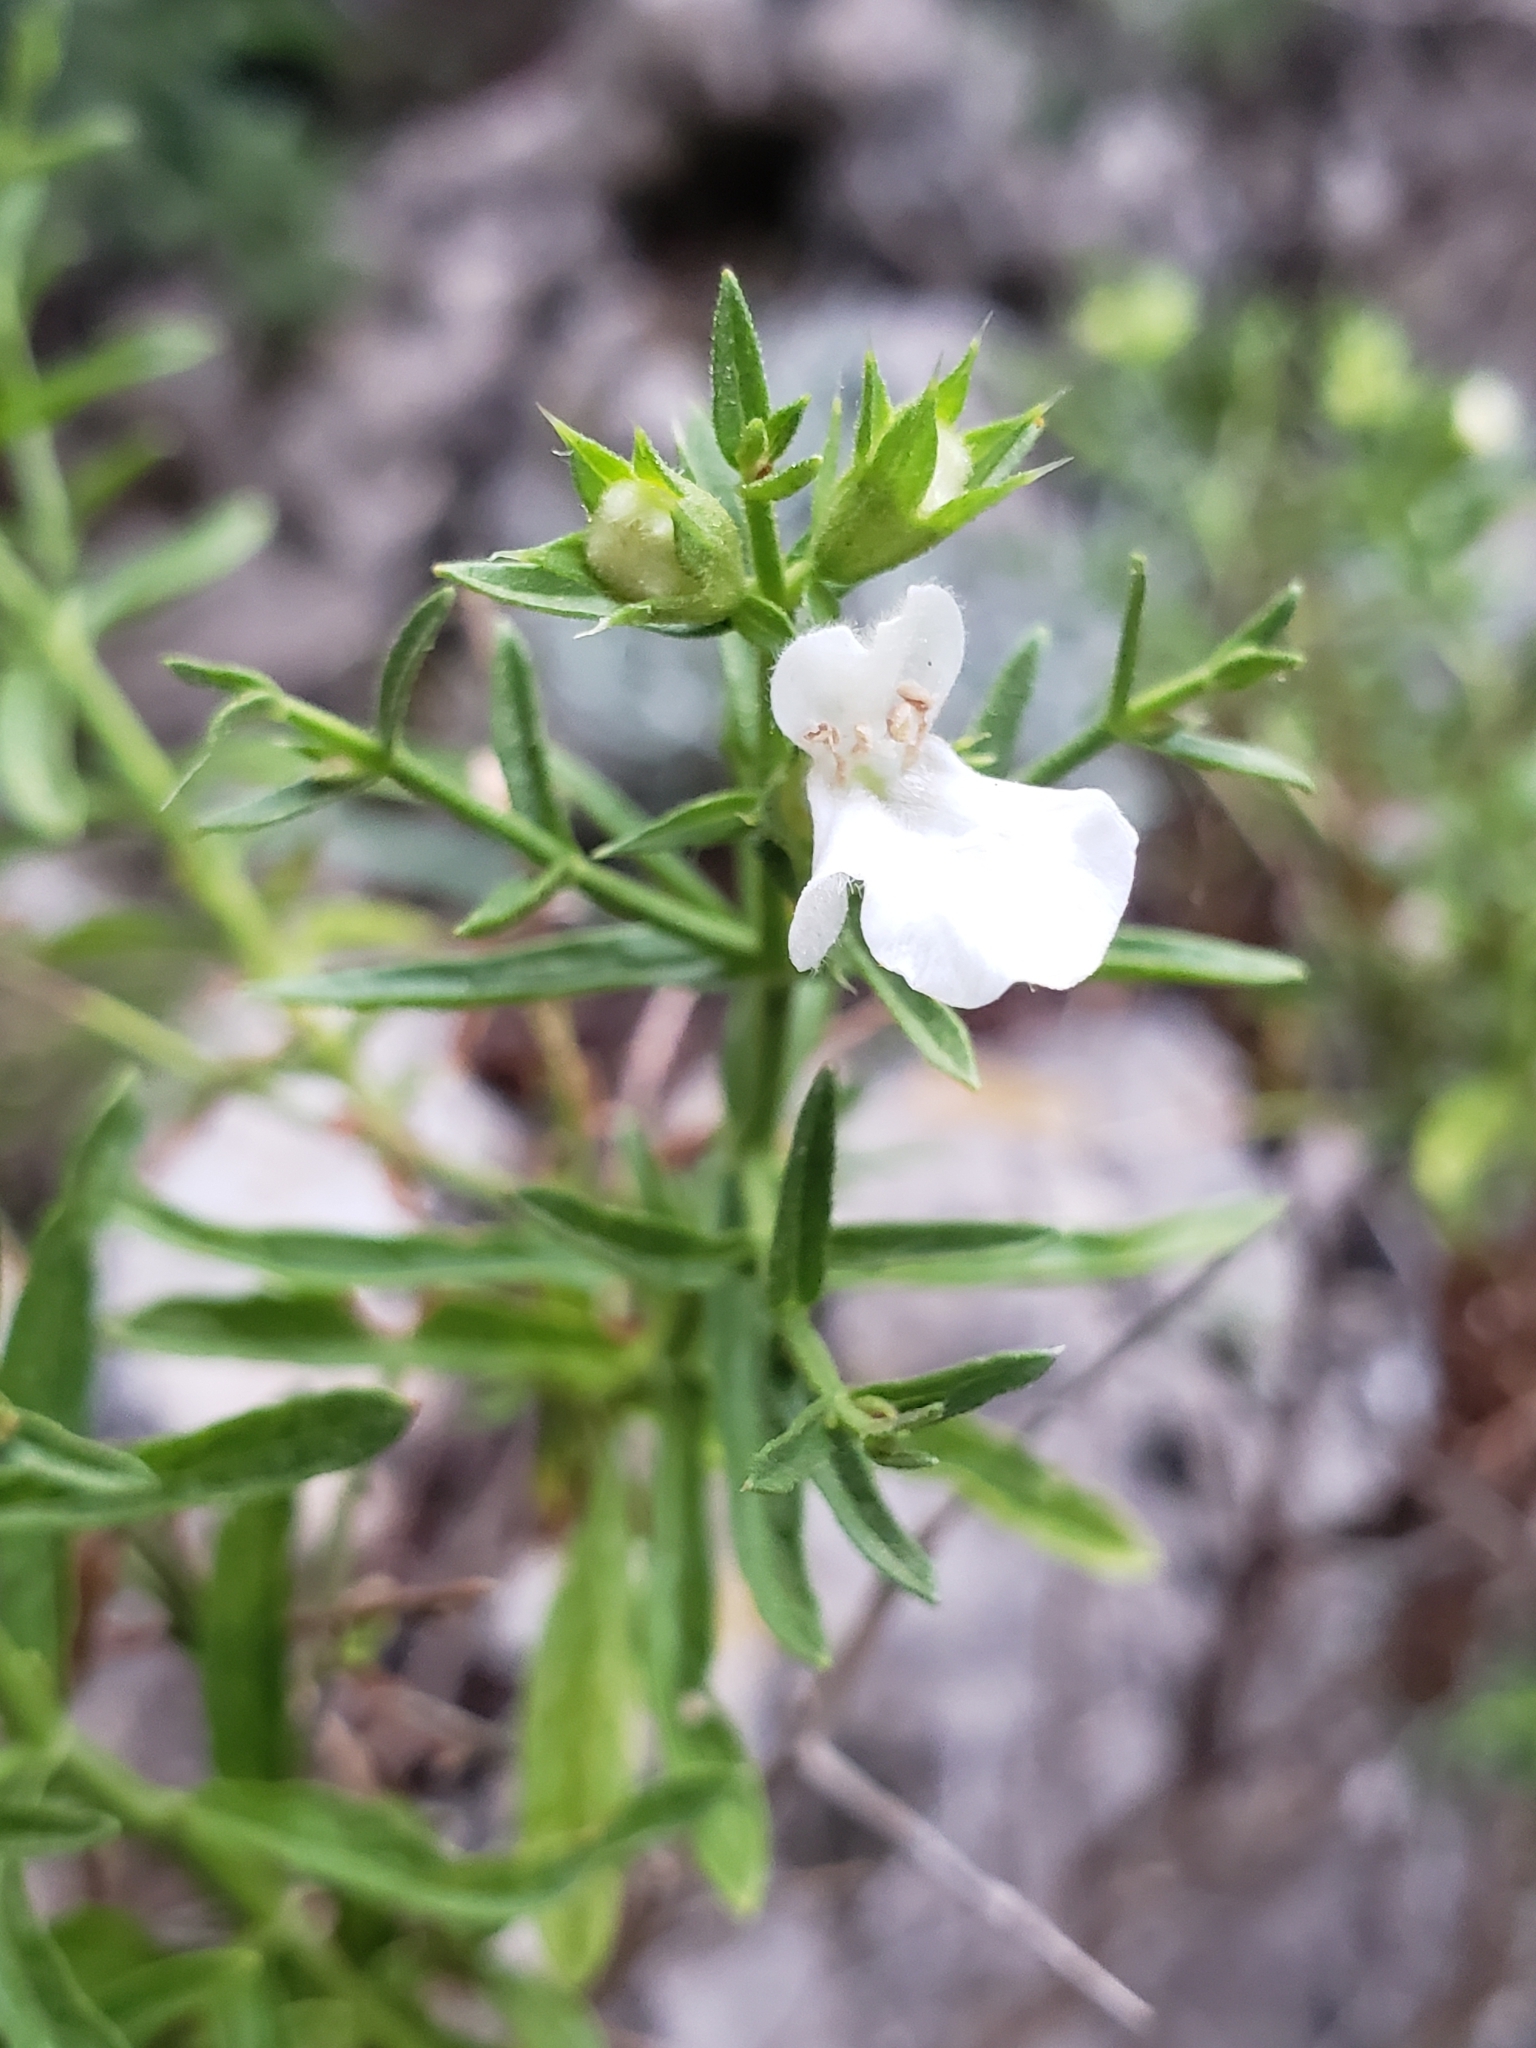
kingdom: Plantae
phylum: Tracheophyta
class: Magnoliopsida
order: Lamiales
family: Lamiaceae
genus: Stachys
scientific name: Stachys glutinosa
